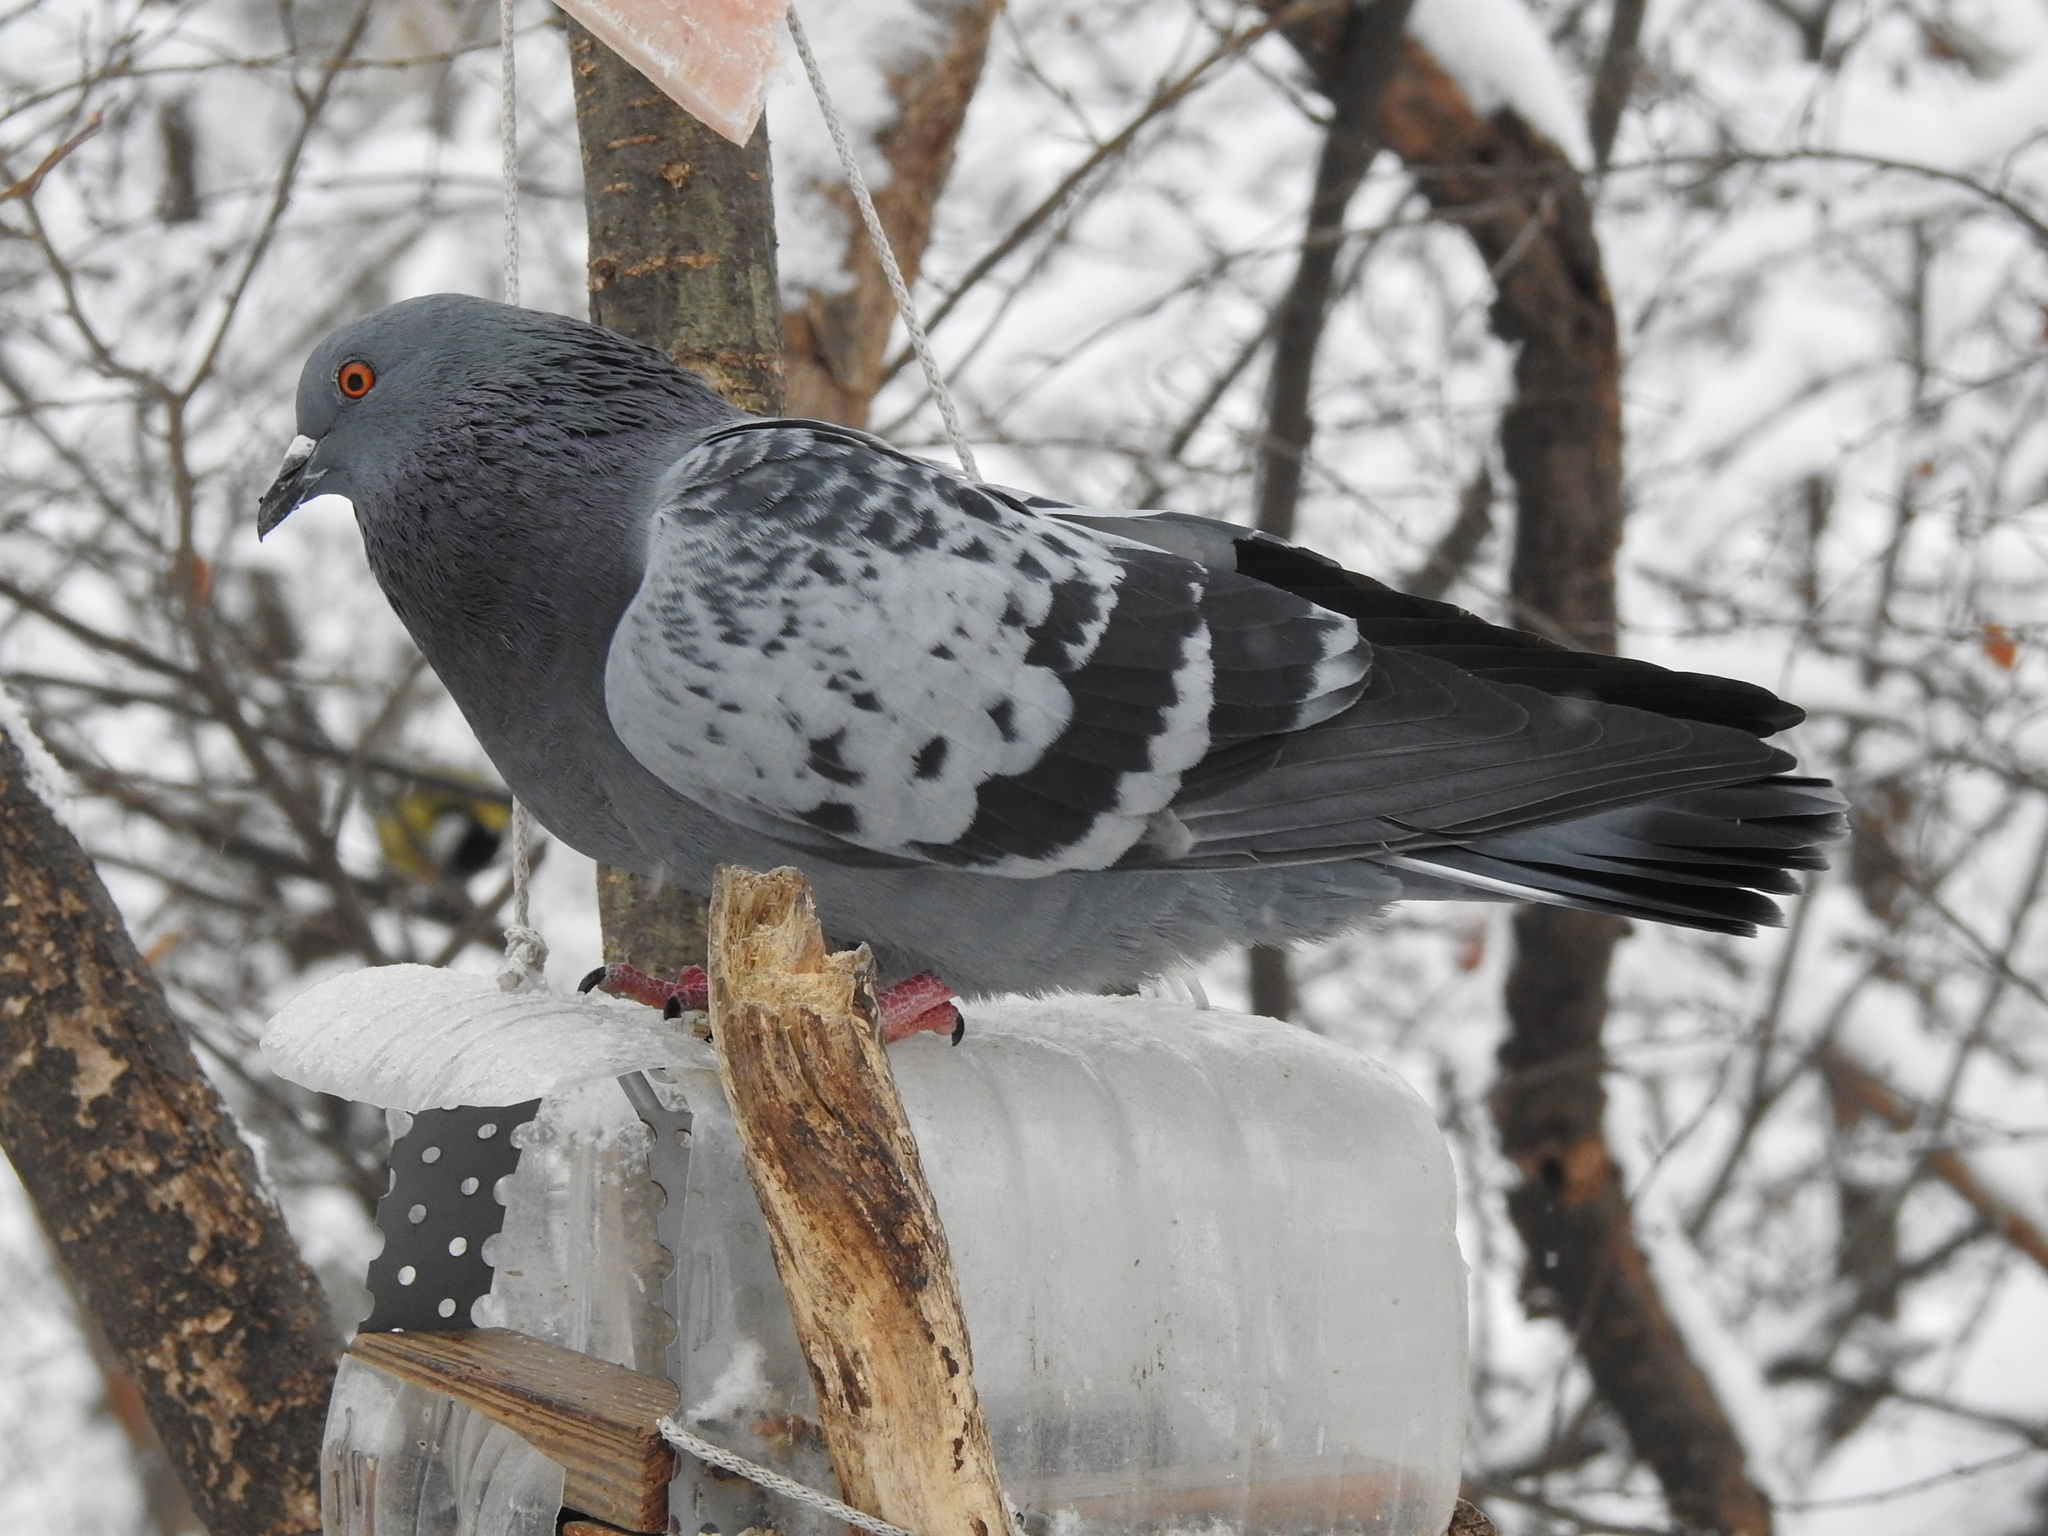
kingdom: Animalia
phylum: Chordata
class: Aves
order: Columbiformes
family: Columbidae
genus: Columba
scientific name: Columba livia
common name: Rock pigeon
